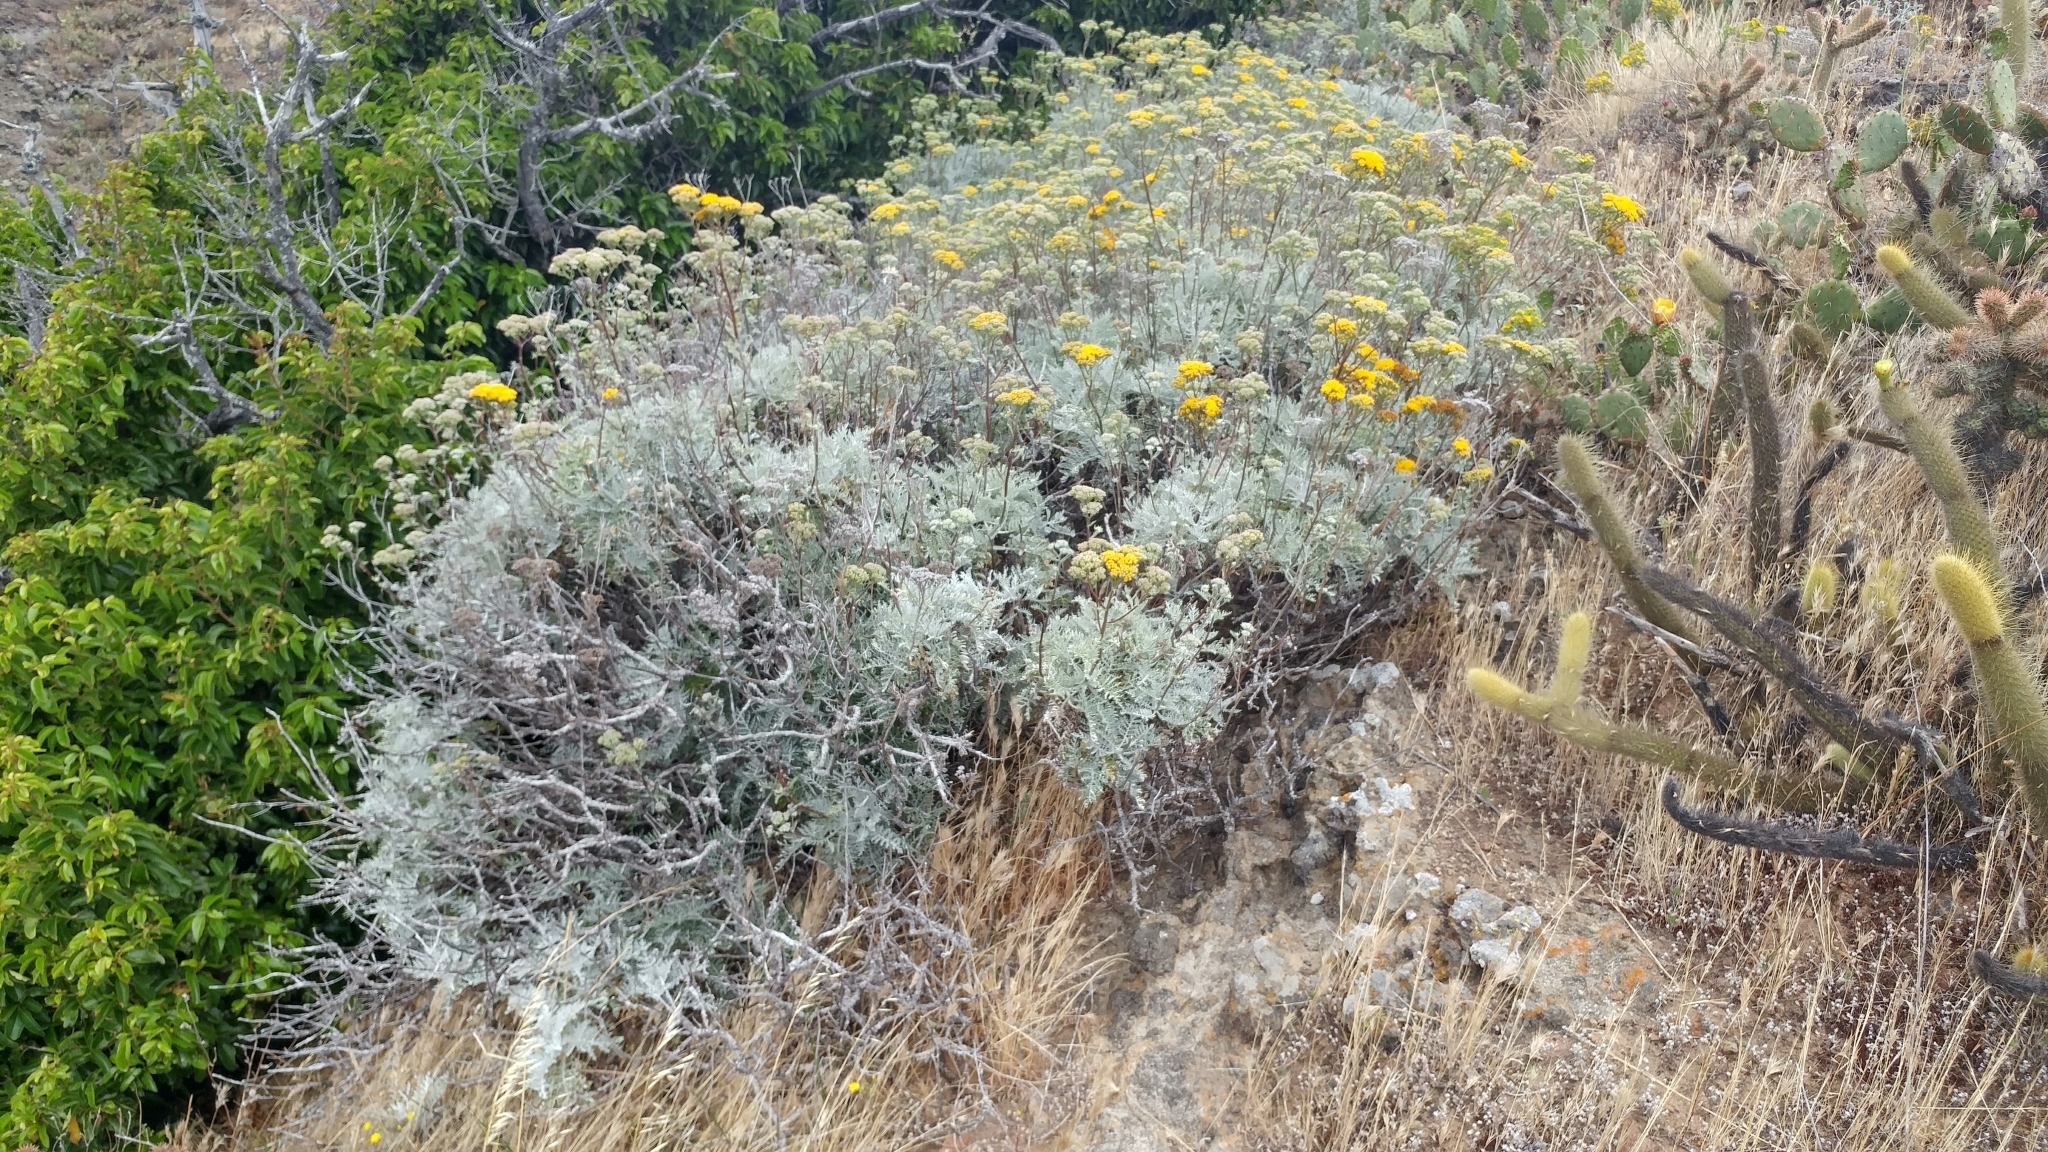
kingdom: Plantae
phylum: Tracheophyta
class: Magnoliopsida
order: Asterales
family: Asteraceae
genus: Constancea
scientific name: Constancea nevinii
